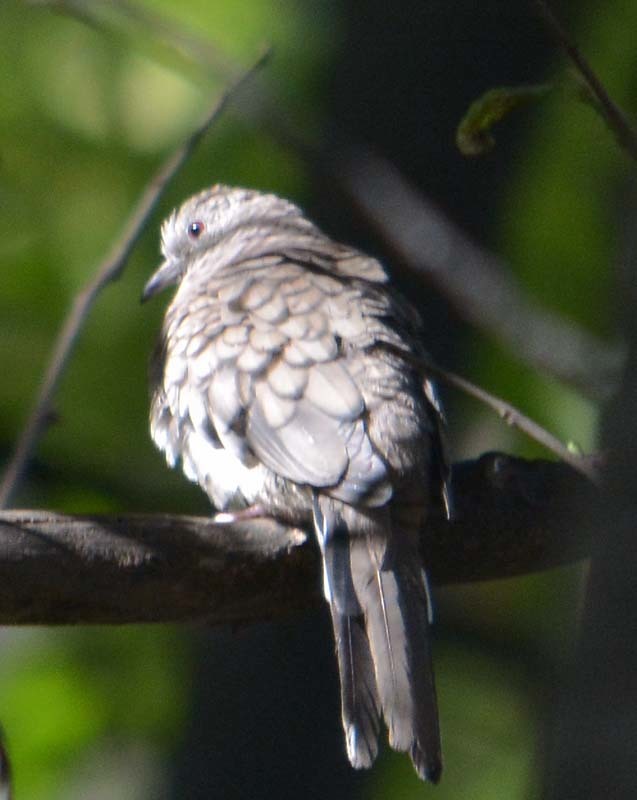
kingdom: Animalia
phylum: Chordata
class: Aves
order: Columbiformes
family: Columbidae
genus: Columbina
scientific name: Columbina inca
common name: Inca dove
